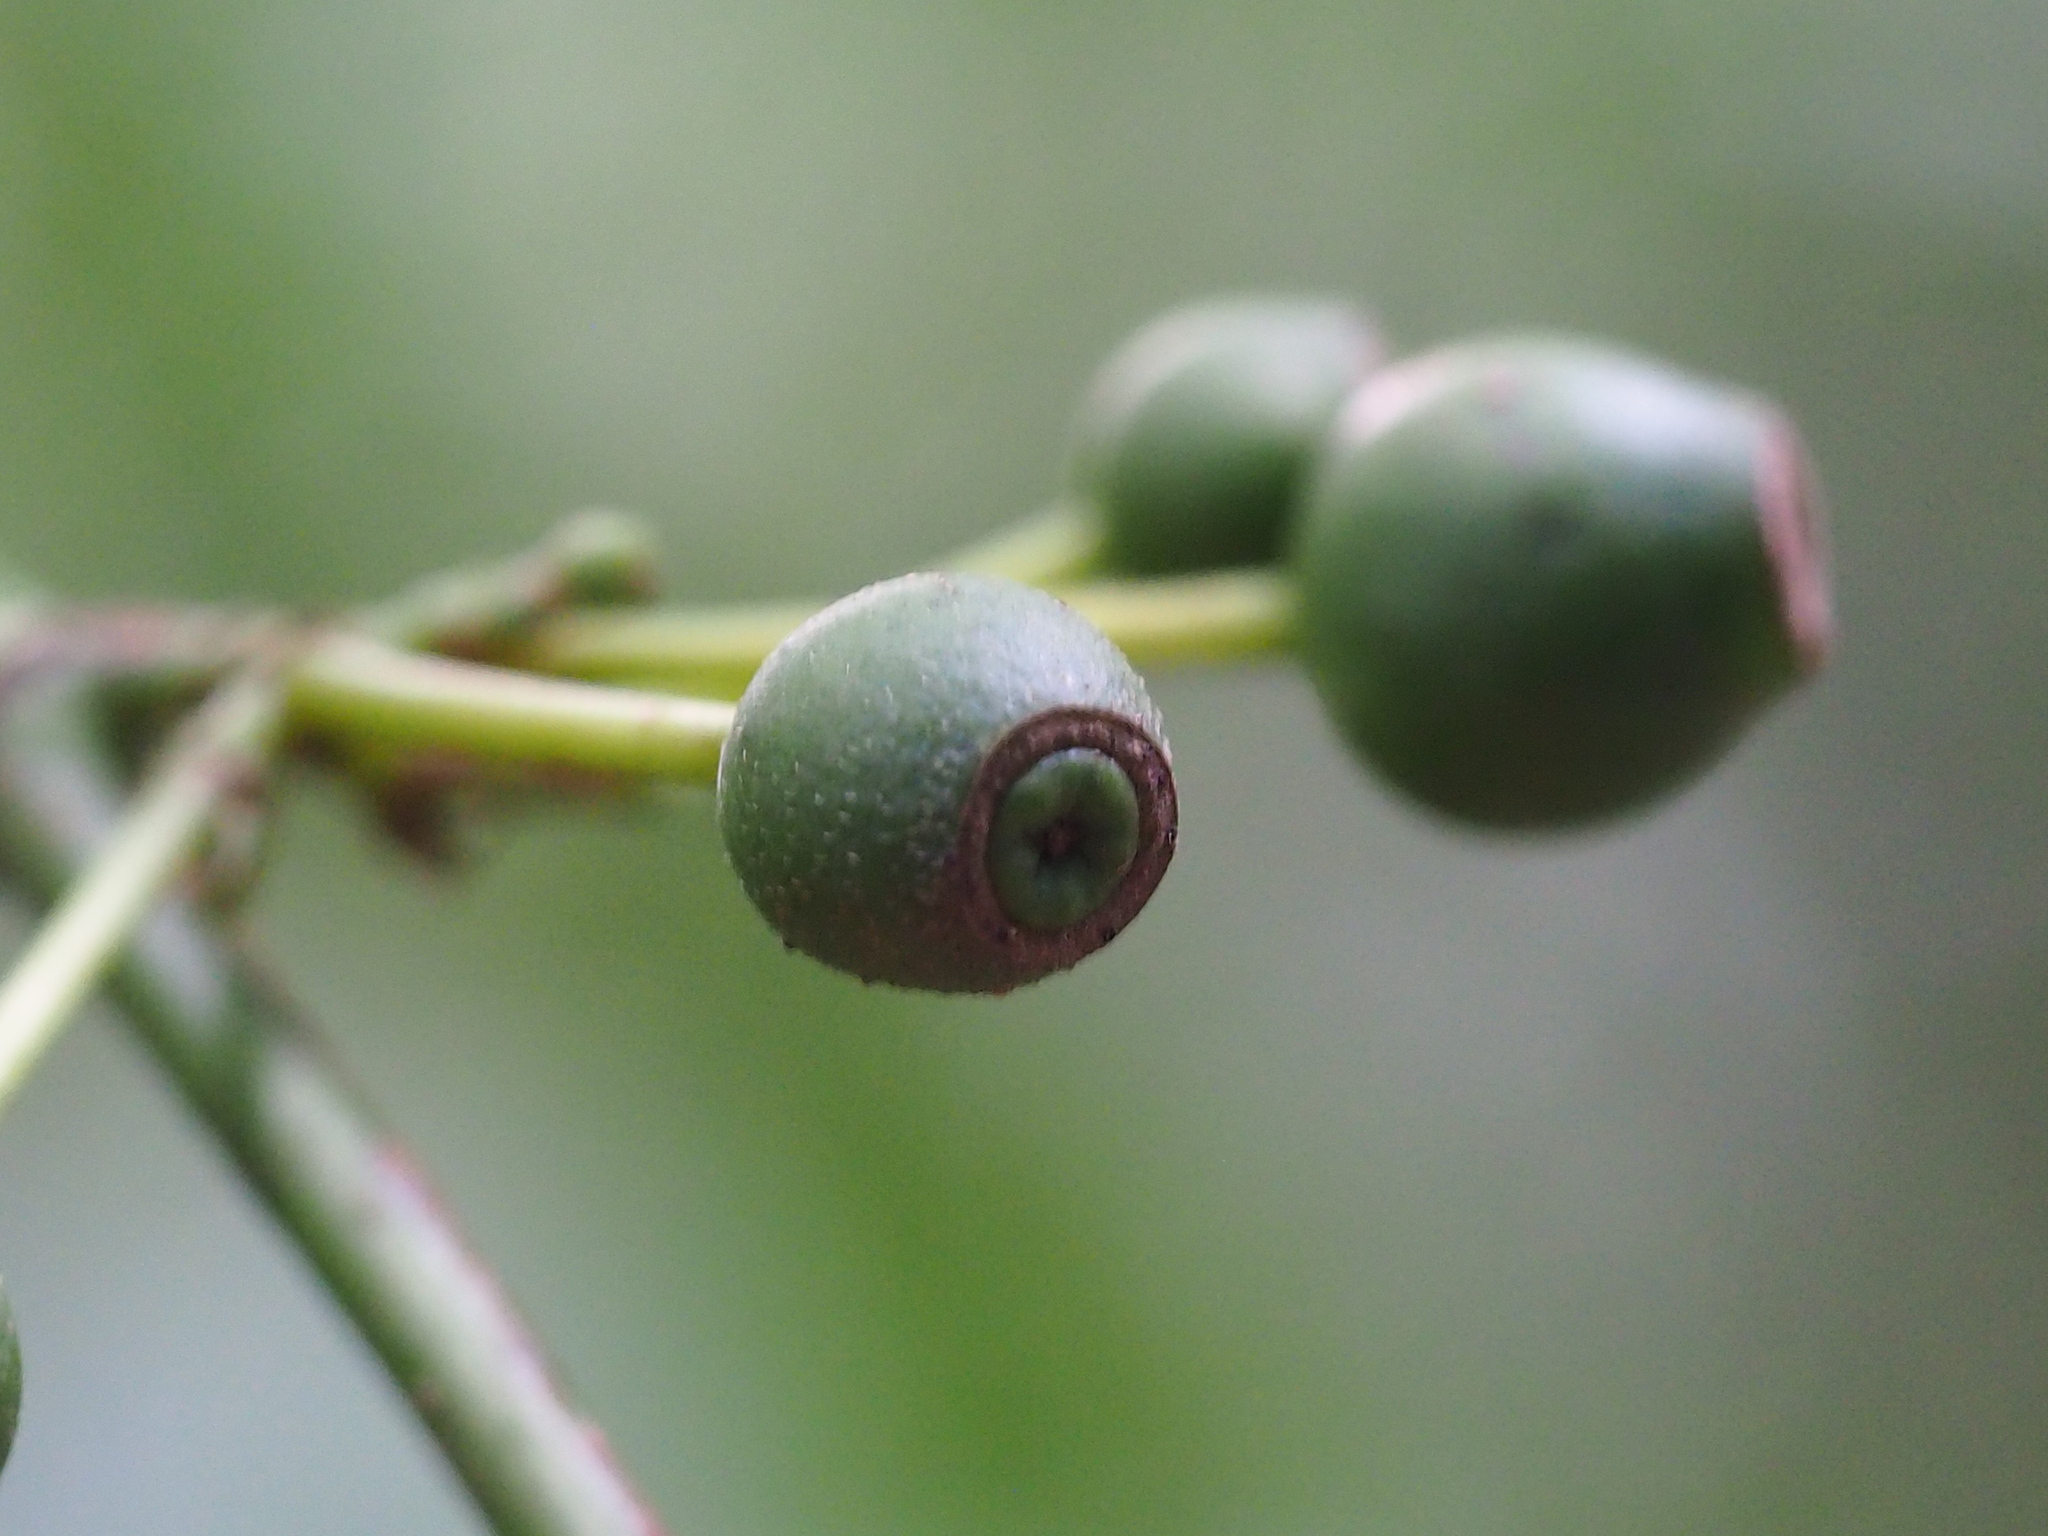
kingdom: Plantae
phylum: Tracheophyta
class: Magnoliopsida
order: Gentianales
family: Rubiaceae
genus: Aidia
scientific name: Aidia canthioides
